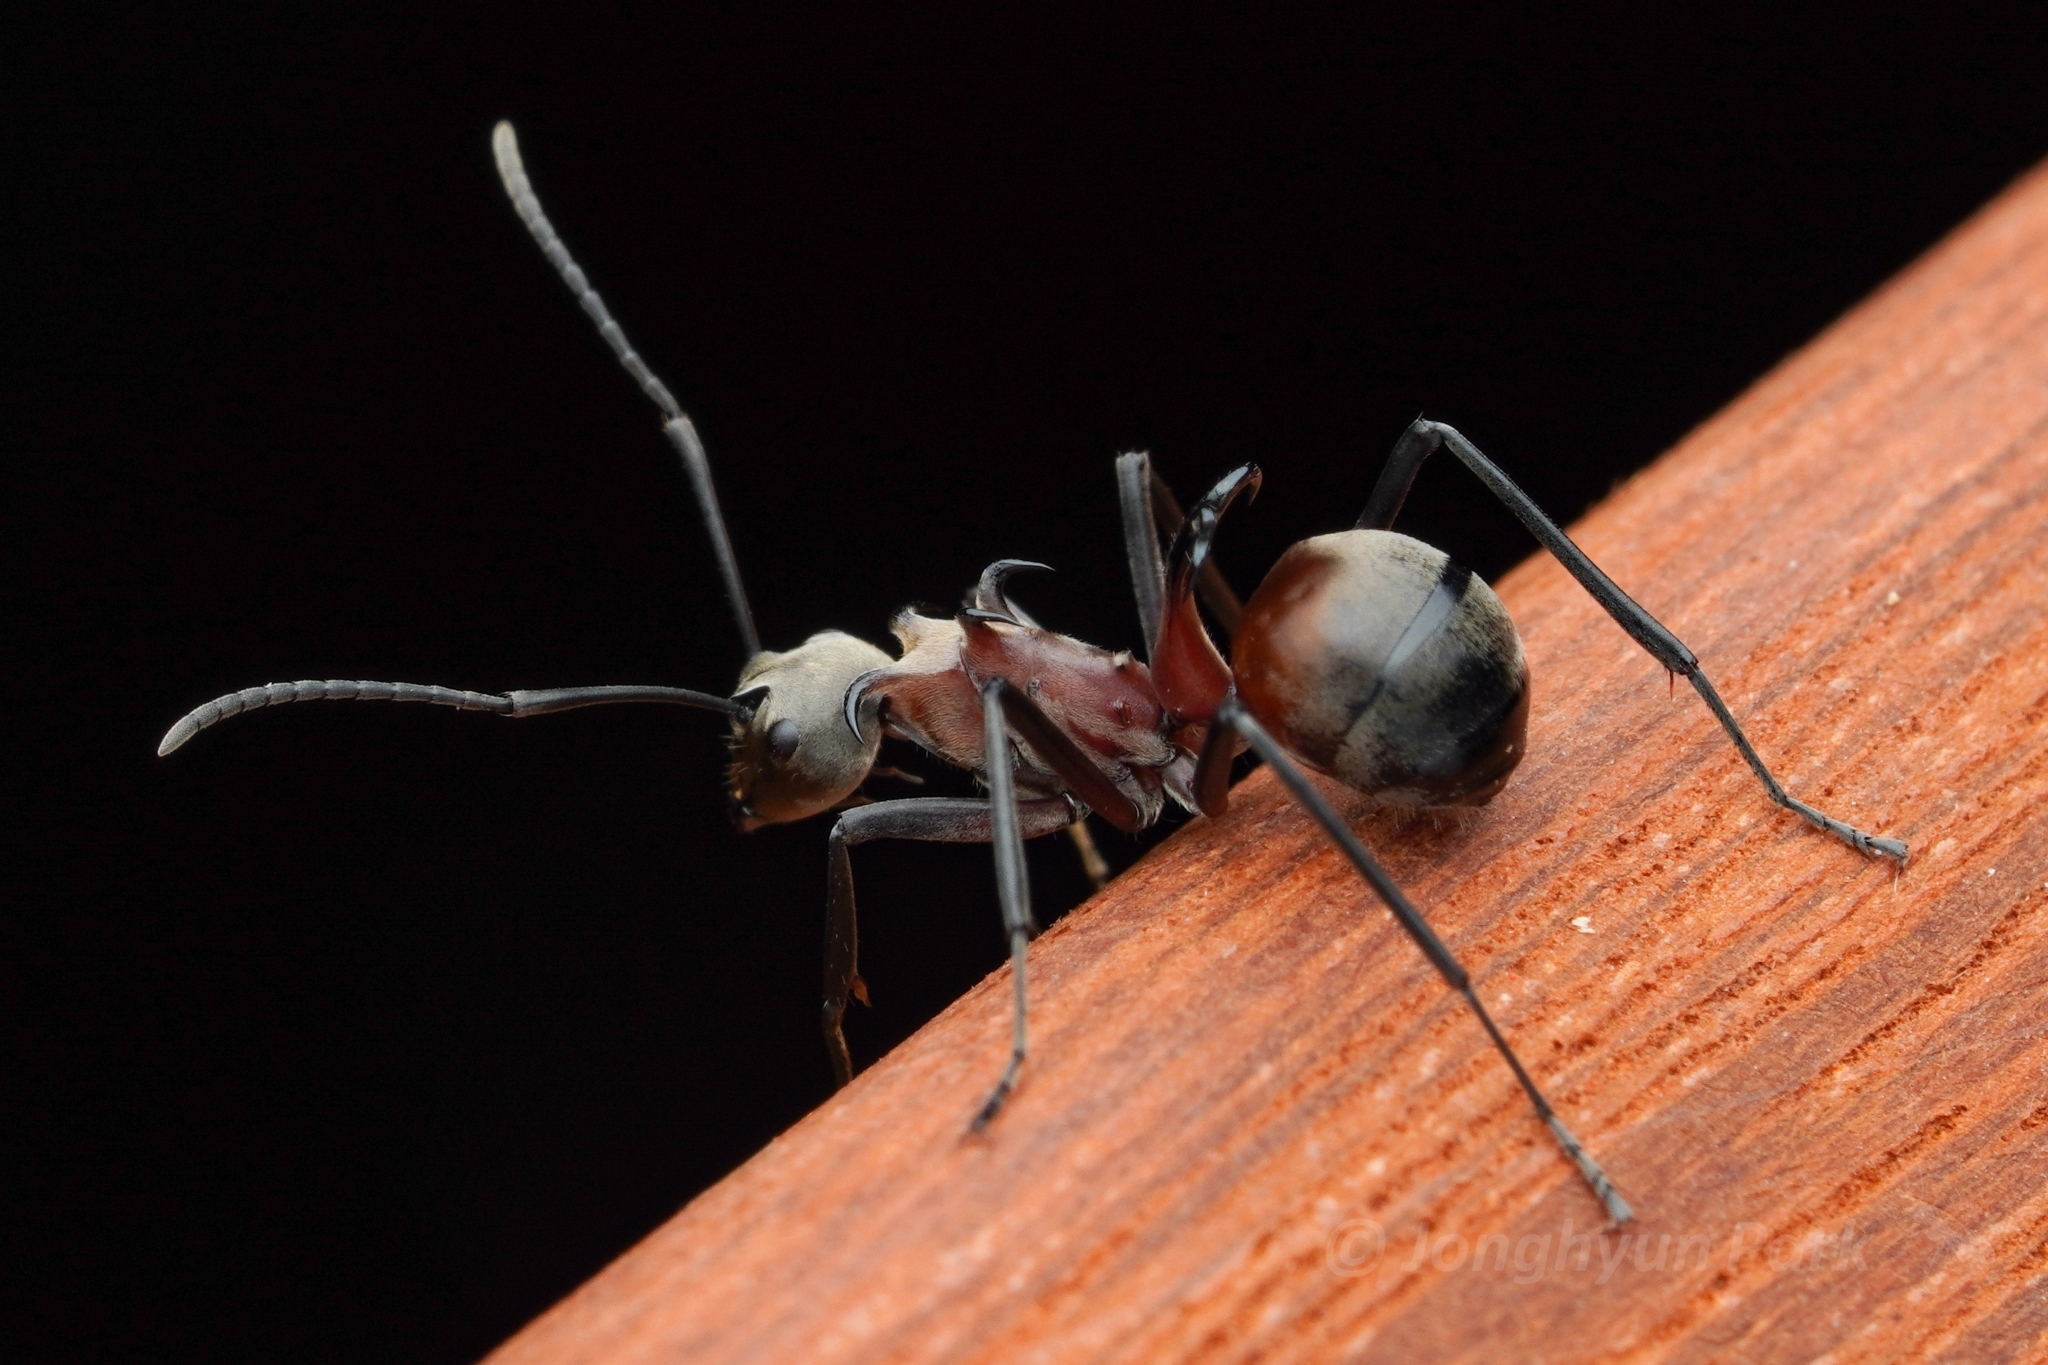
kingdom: Animalia
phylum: Arthropoda
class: Insecta
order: Hymenoptera
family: Formicidae
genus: Polyrhachis
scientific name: Polyrhachis olybria
